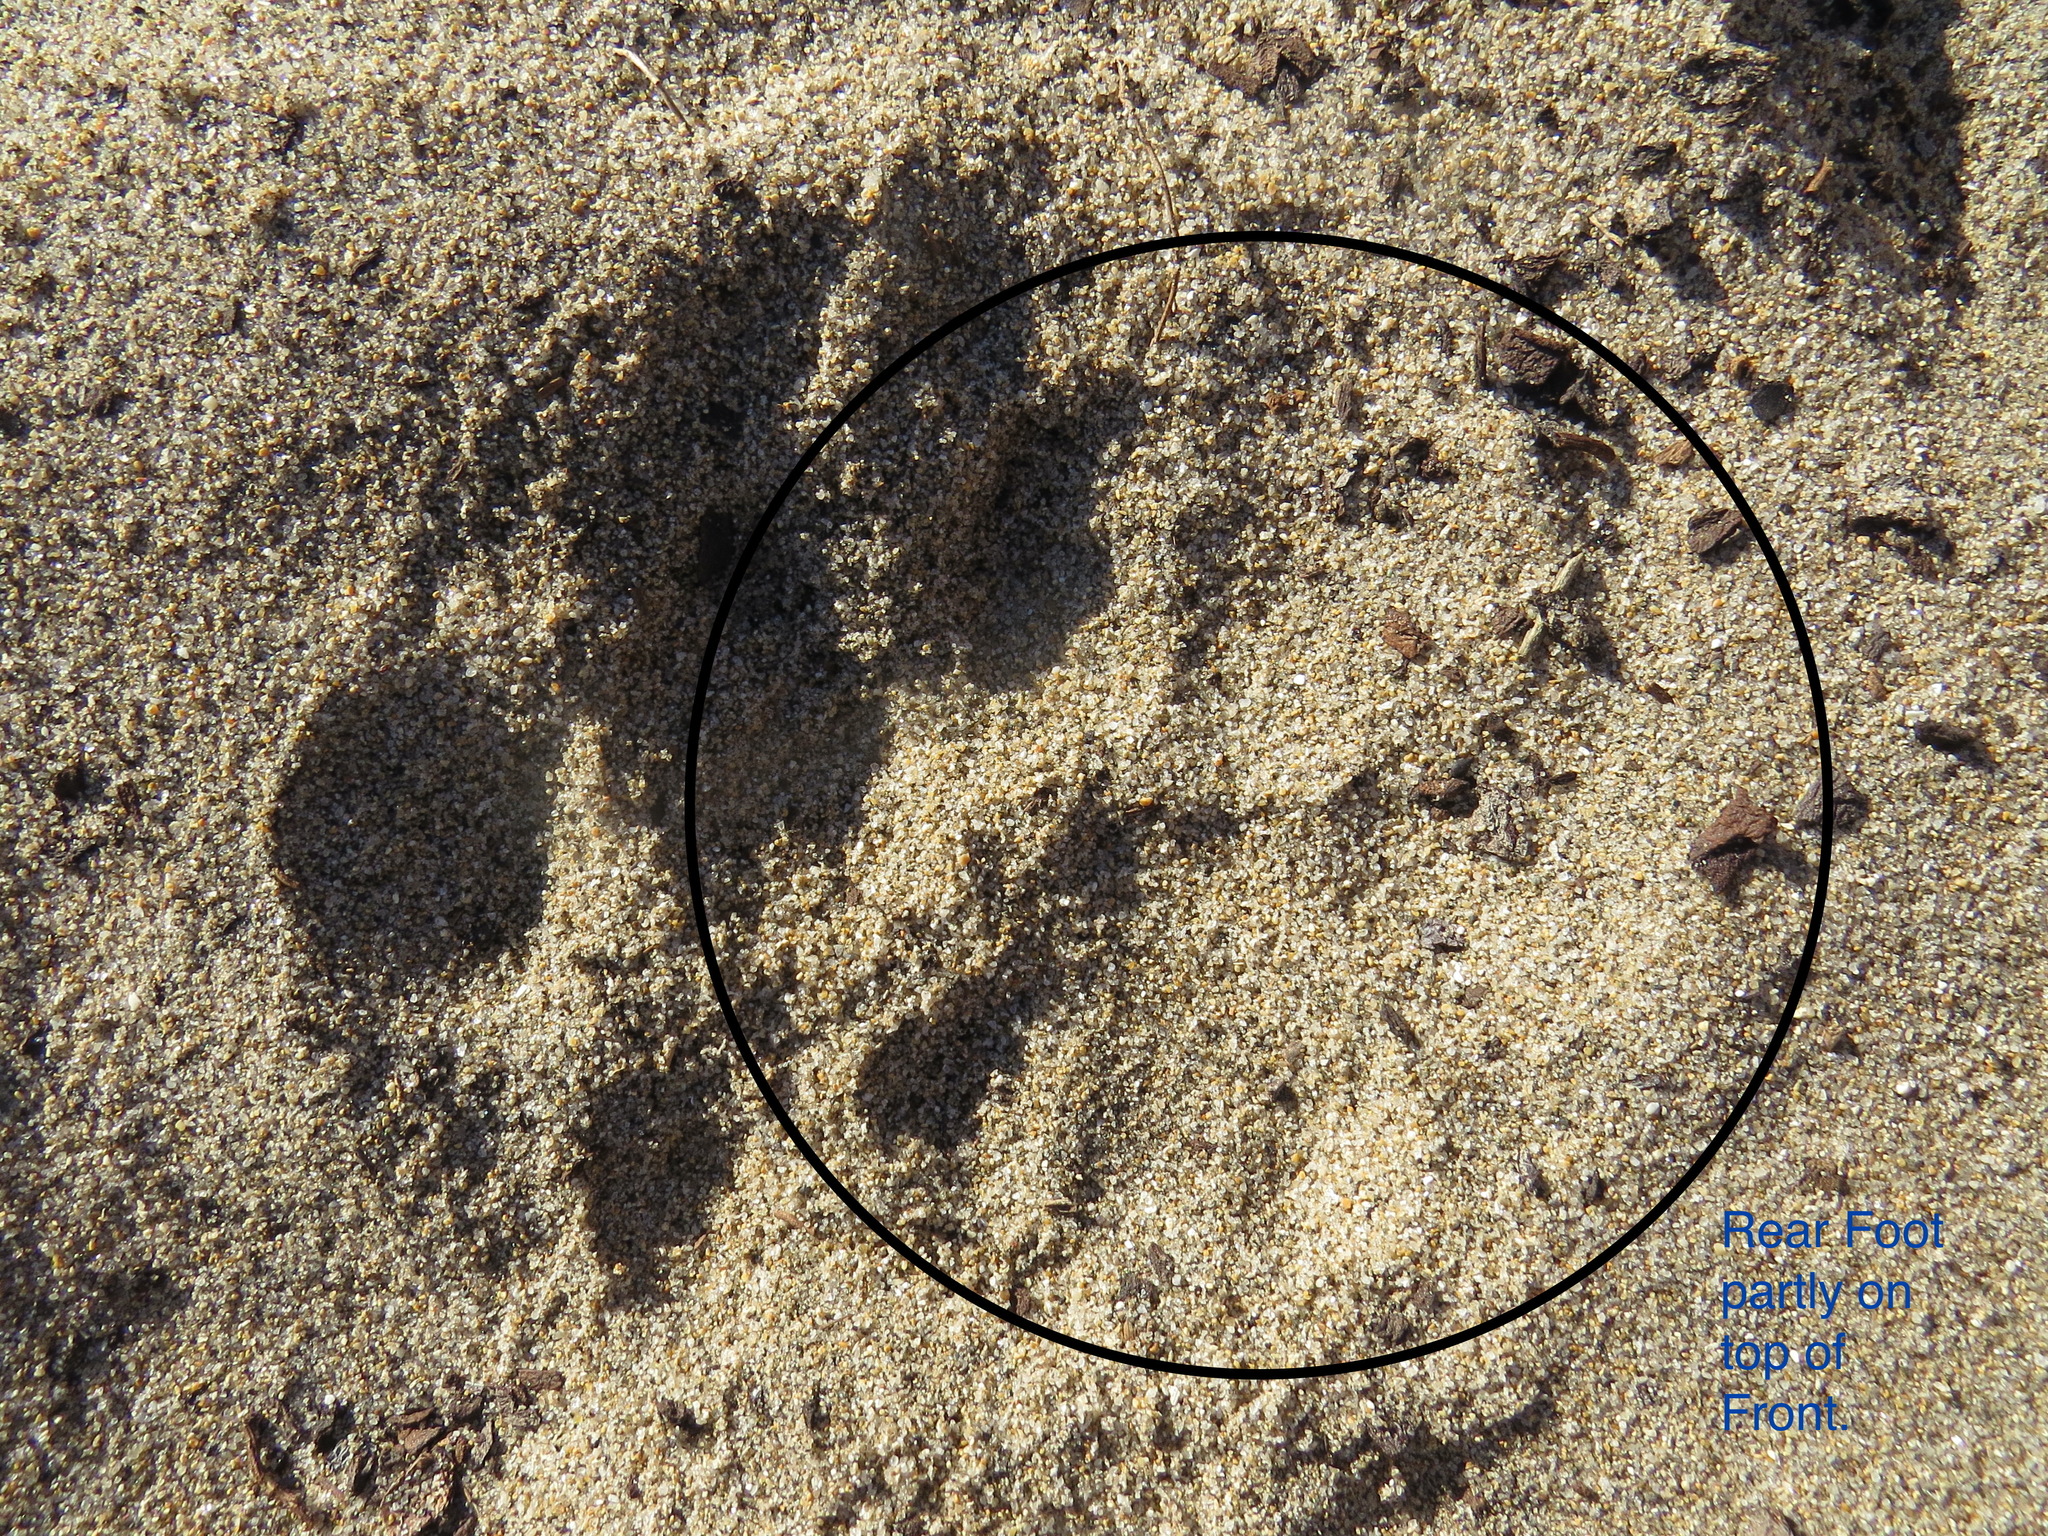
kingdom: Animalia
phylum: Chordata
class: Mammalia
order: Carnivora
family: Felidae
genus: Puma
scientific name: Puma concolor
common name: Puma
